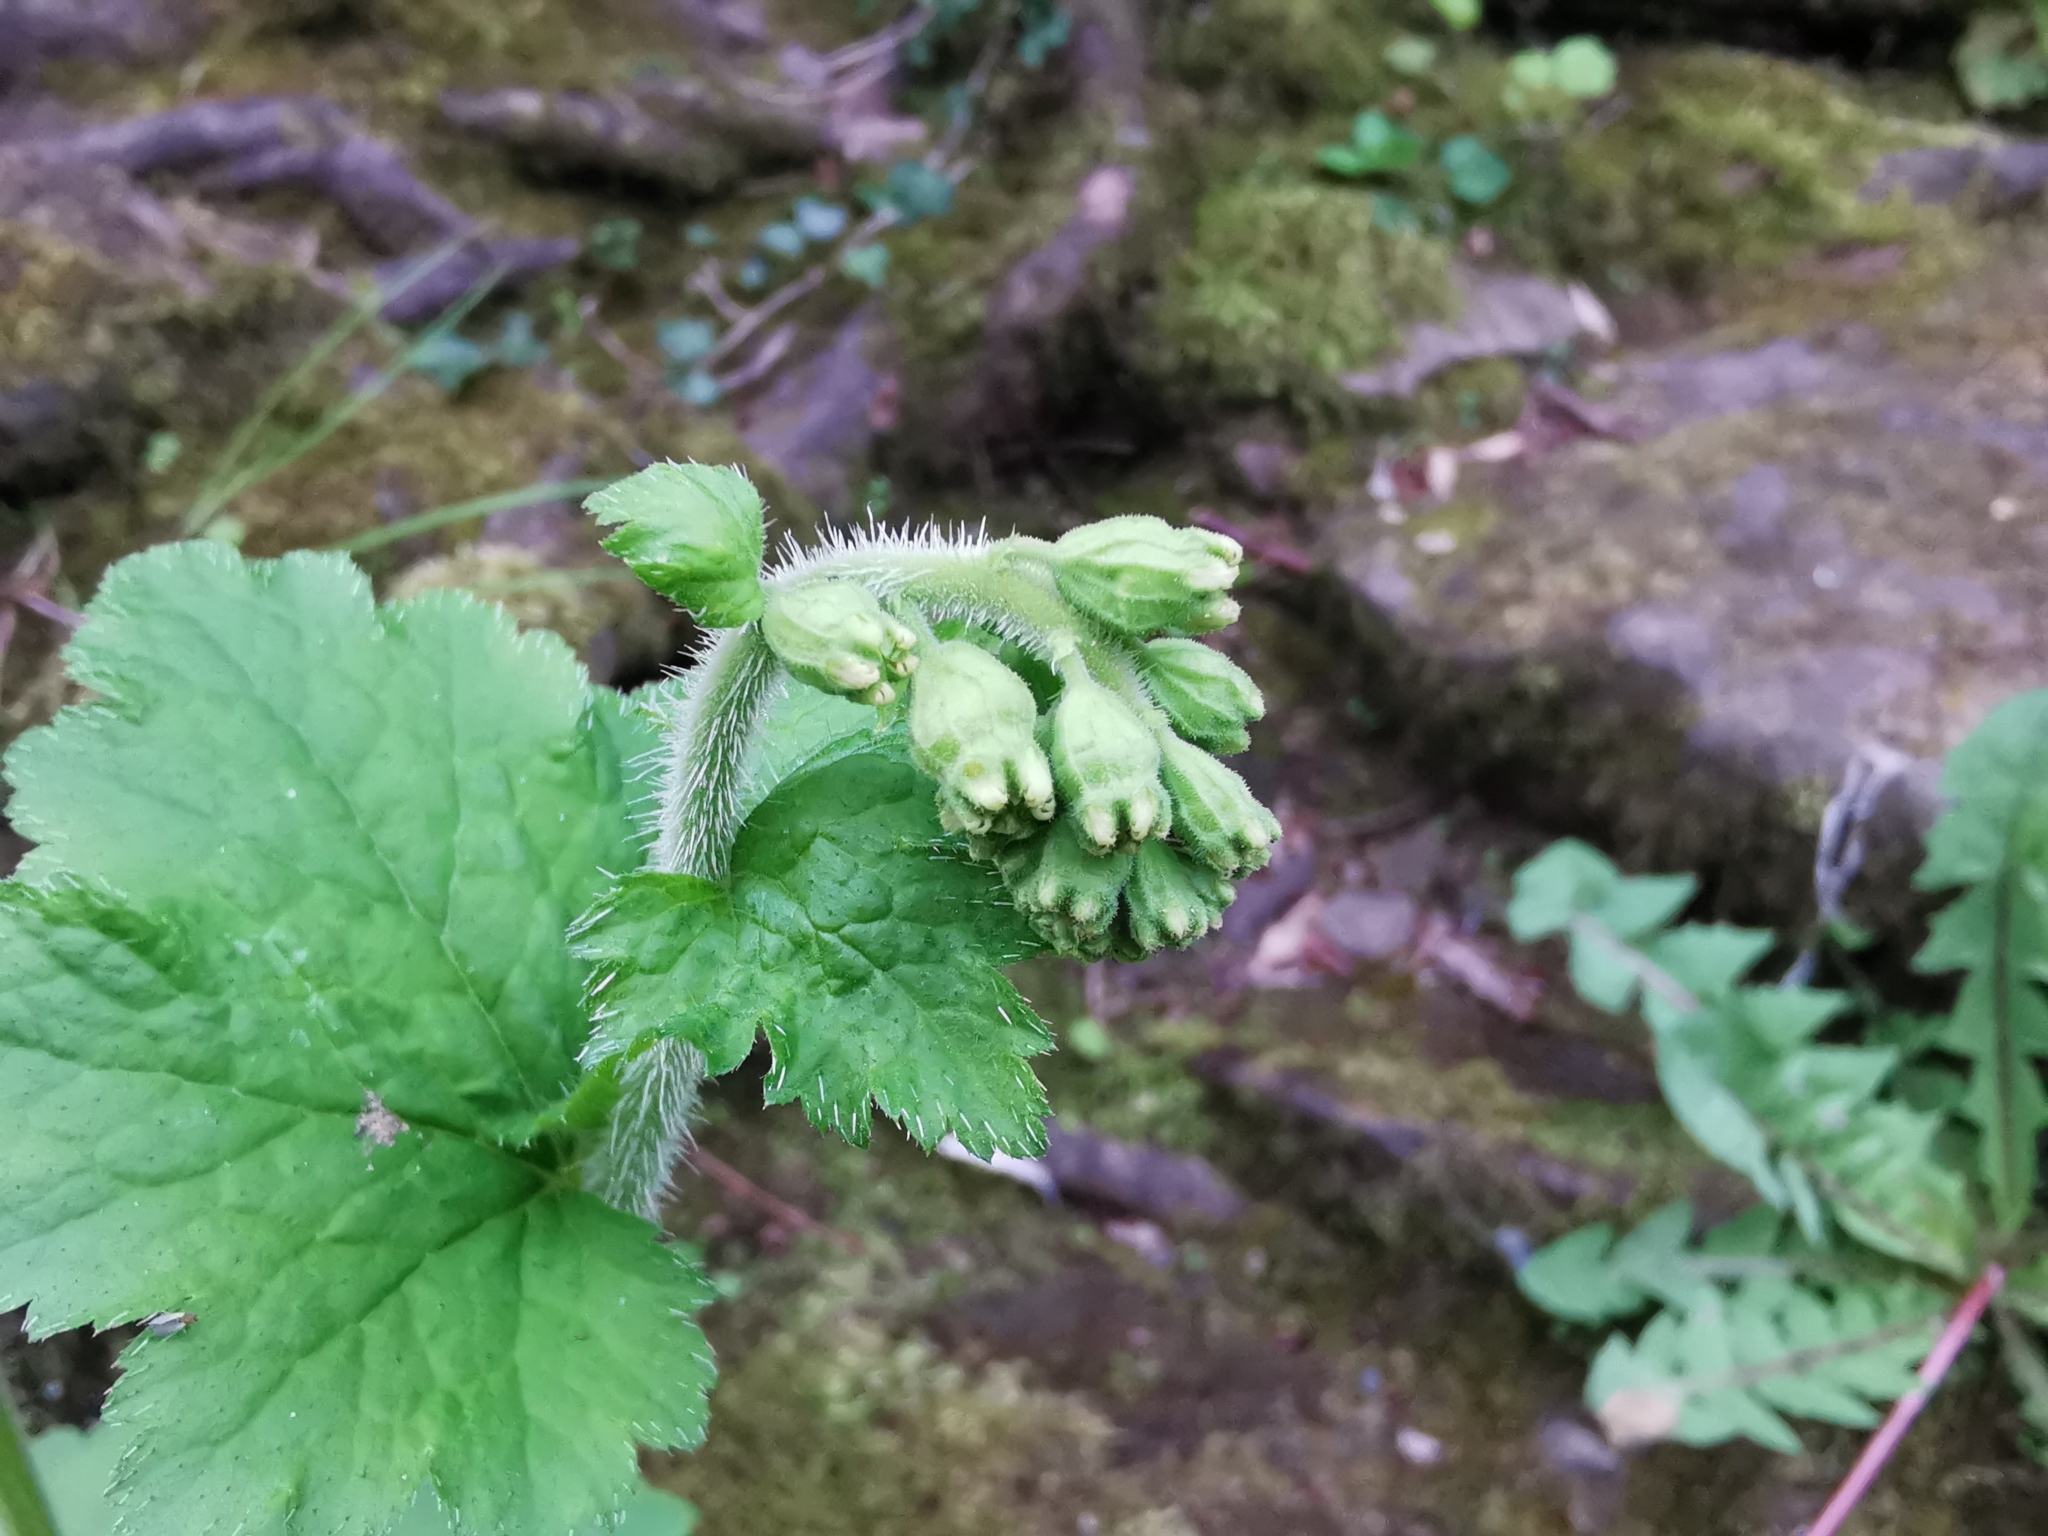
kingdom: Plantae
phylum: Tracheophyta
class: Magnoliopsida
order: Saxifragales
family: Saxifragaceae
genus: Tellima
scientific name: Tellima grandiflora
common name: Fringecups
